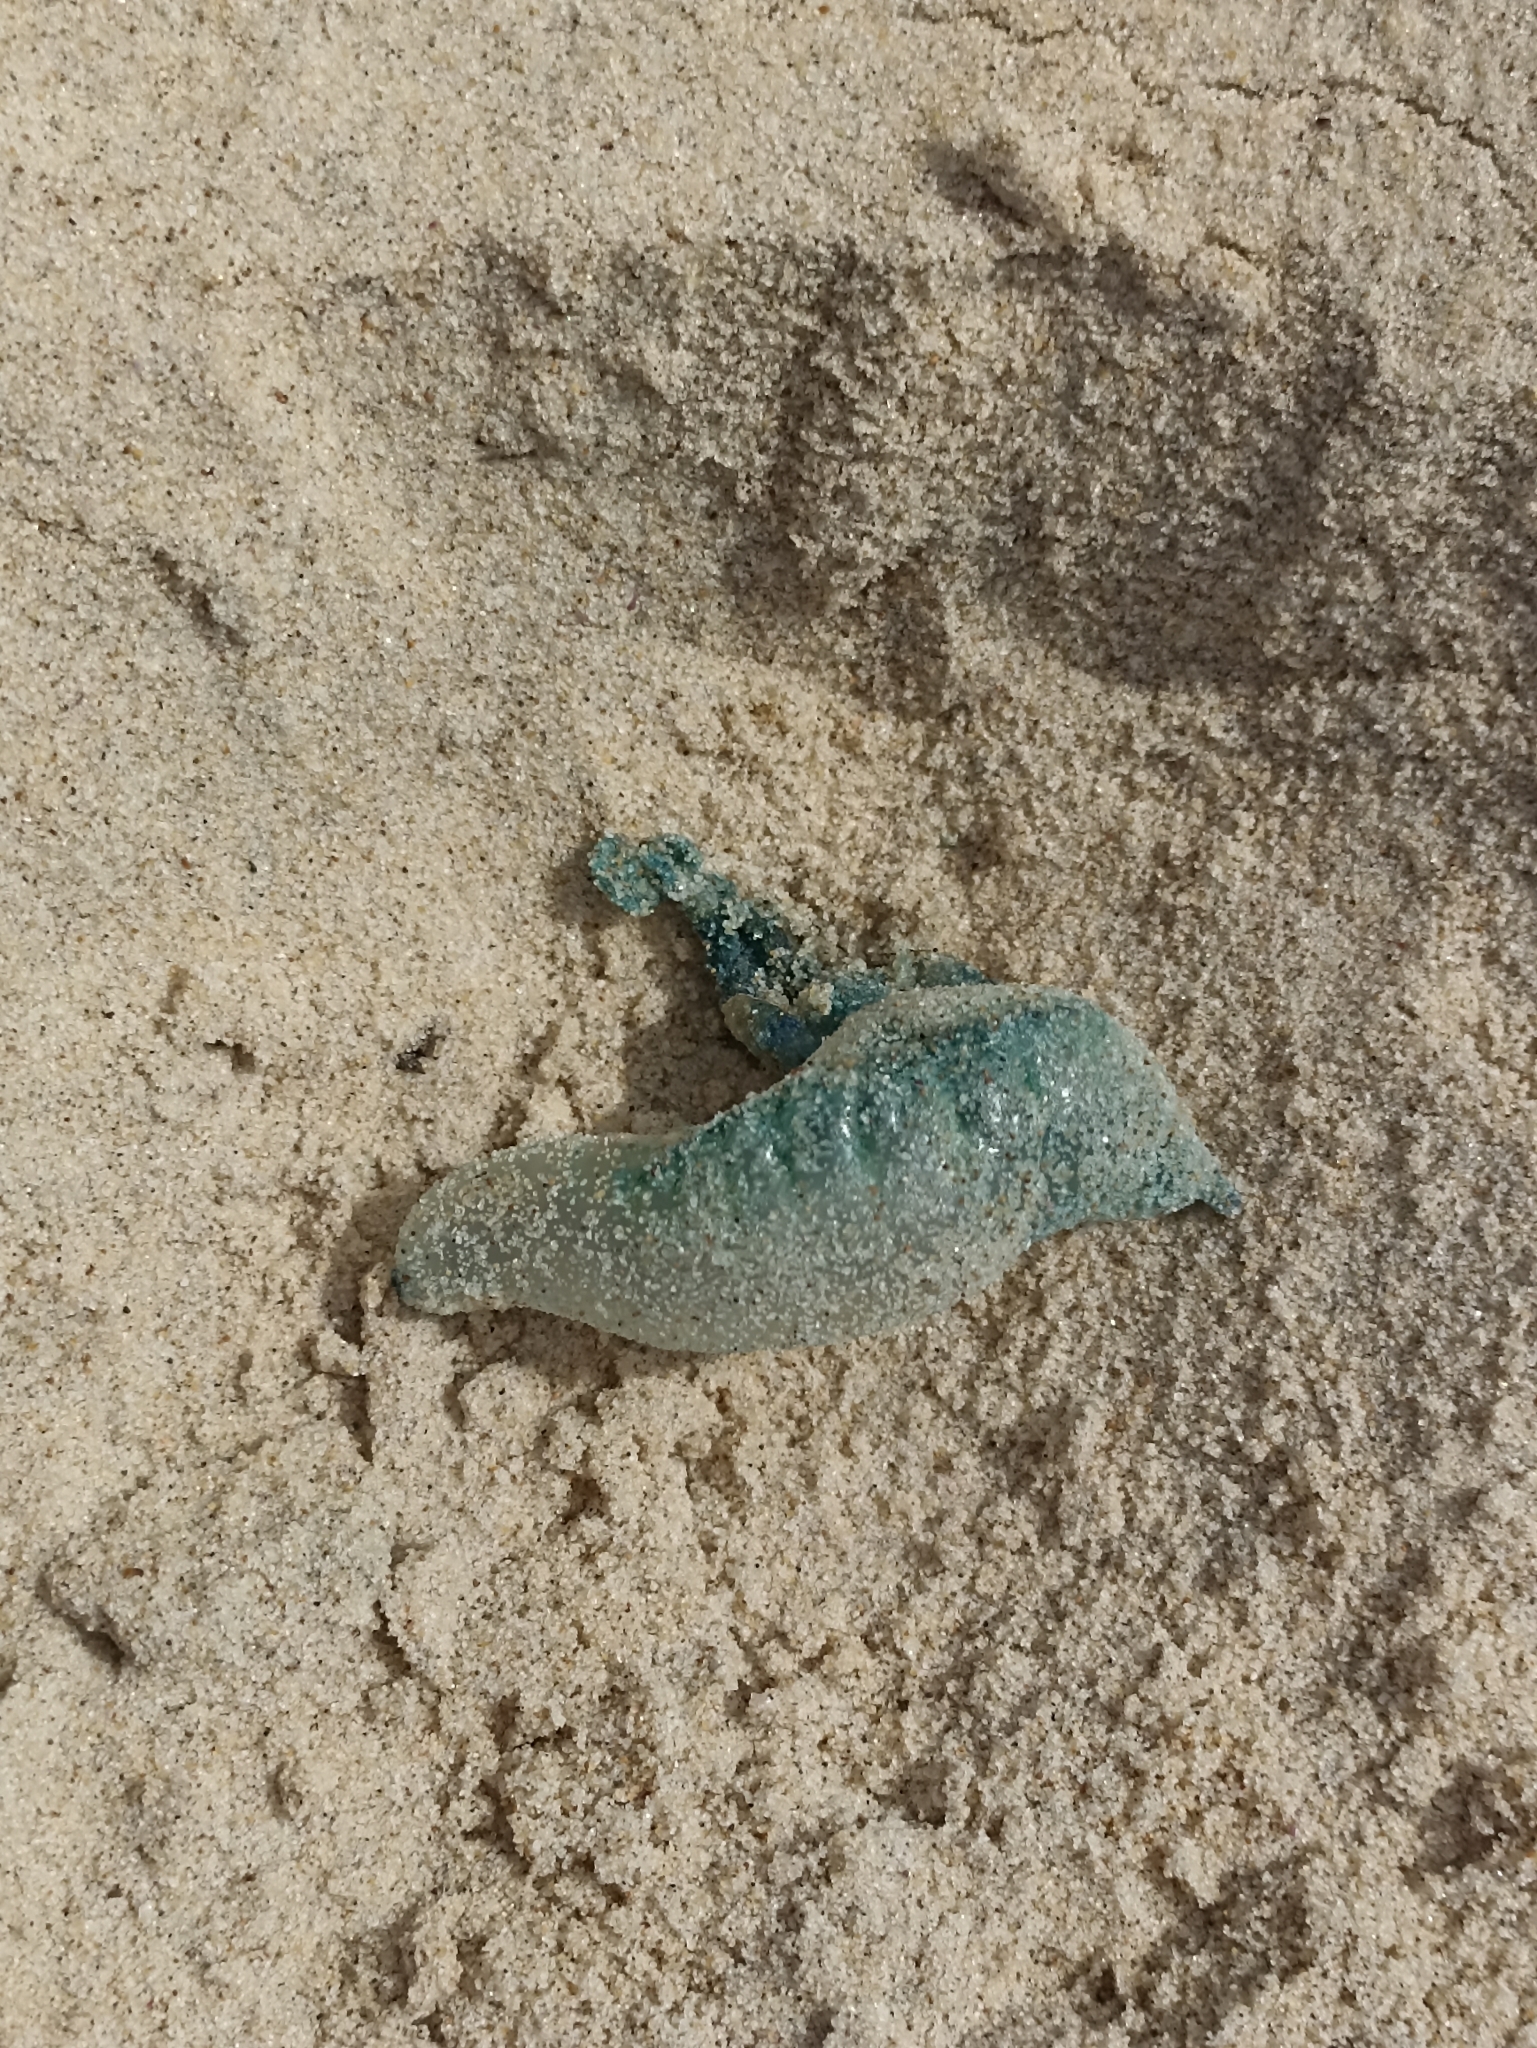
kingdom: Animalia
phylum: Cnidaria
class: Hydrozoa
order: Siphonophorae
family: Physaliidae
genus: Physalia
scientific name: Physalia physalis
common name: Portuguese man-of-war
